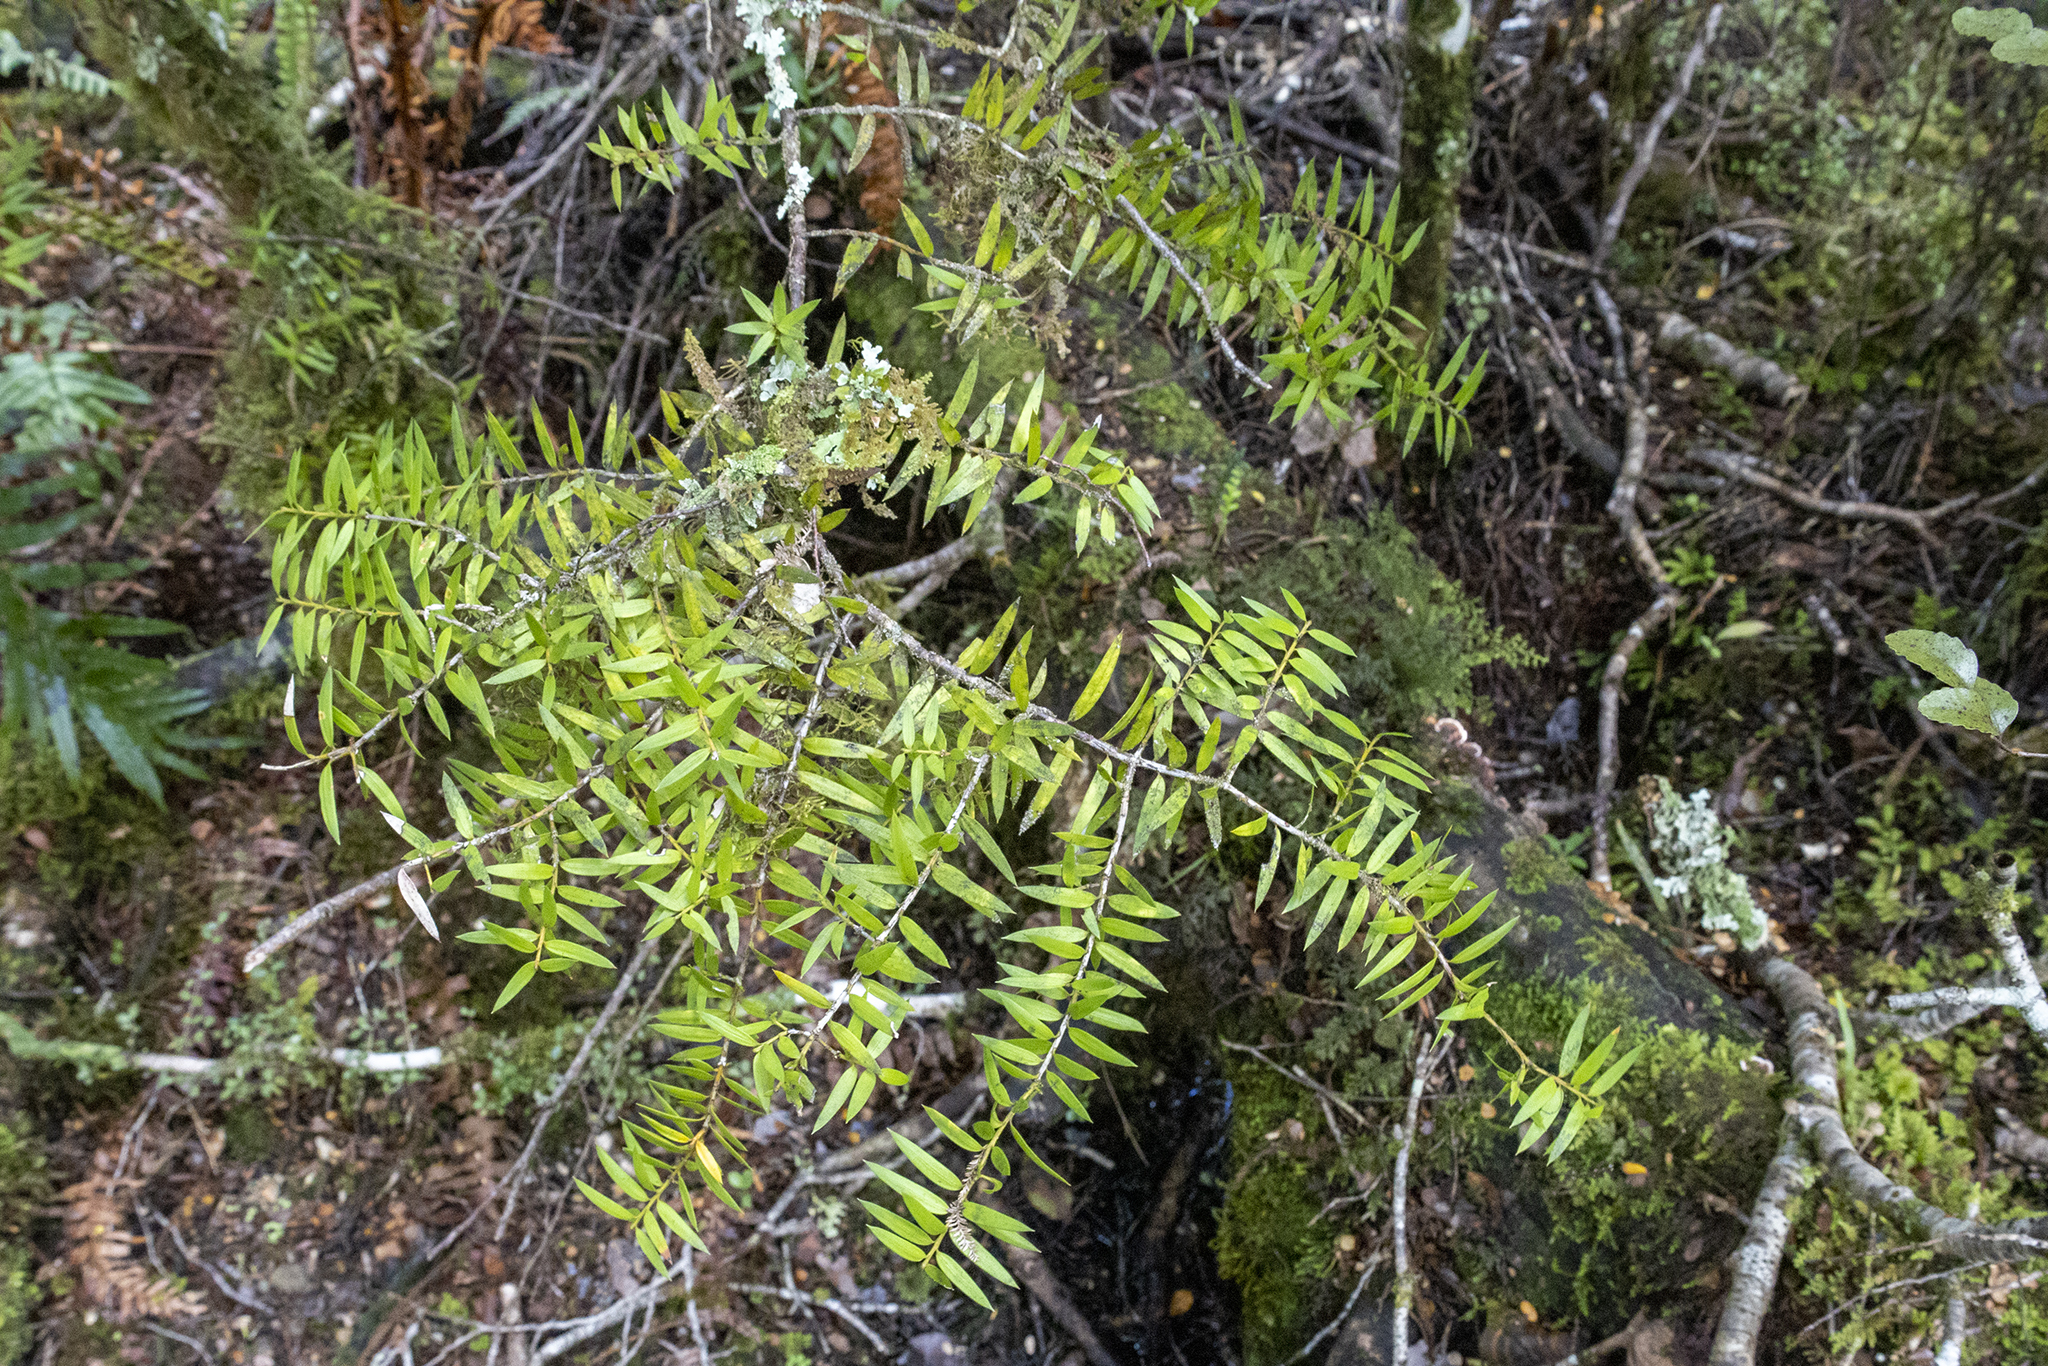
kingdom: Plantae
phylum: Tracheophyta
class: Pinopsida
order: Pinales
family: Podocarpaceae
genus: Podocarpus
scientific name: Podocarpus laetus
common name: Hall's totara
